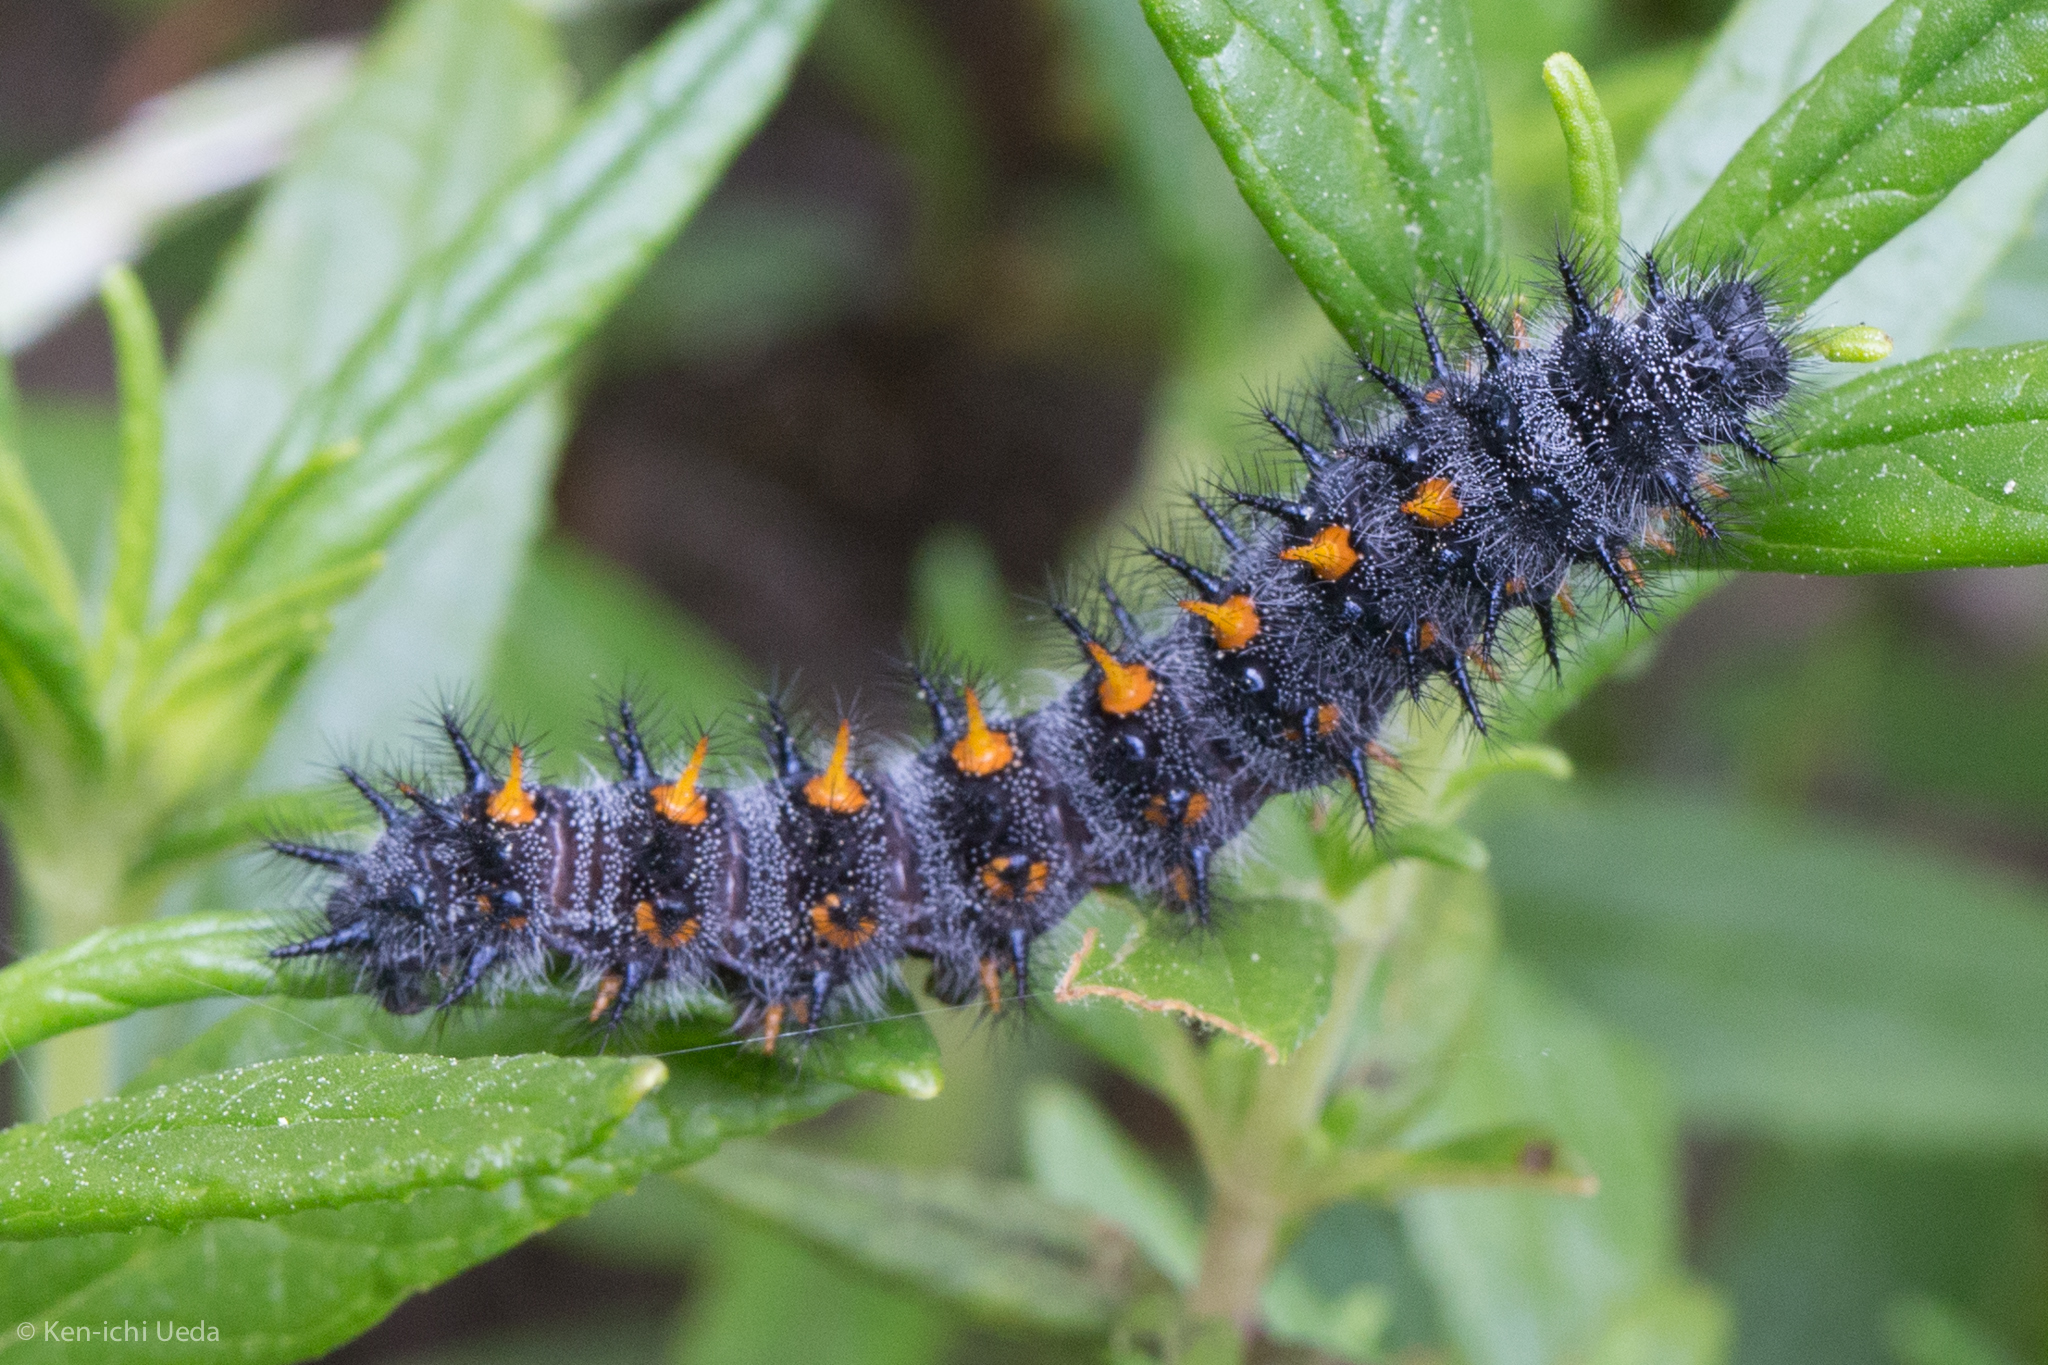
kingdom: Animalia
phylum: Arthropoda
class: Insecta
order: Lepidoptera
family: Nymphalidae
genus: Occidryas
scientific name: Occidryas chalcedona
